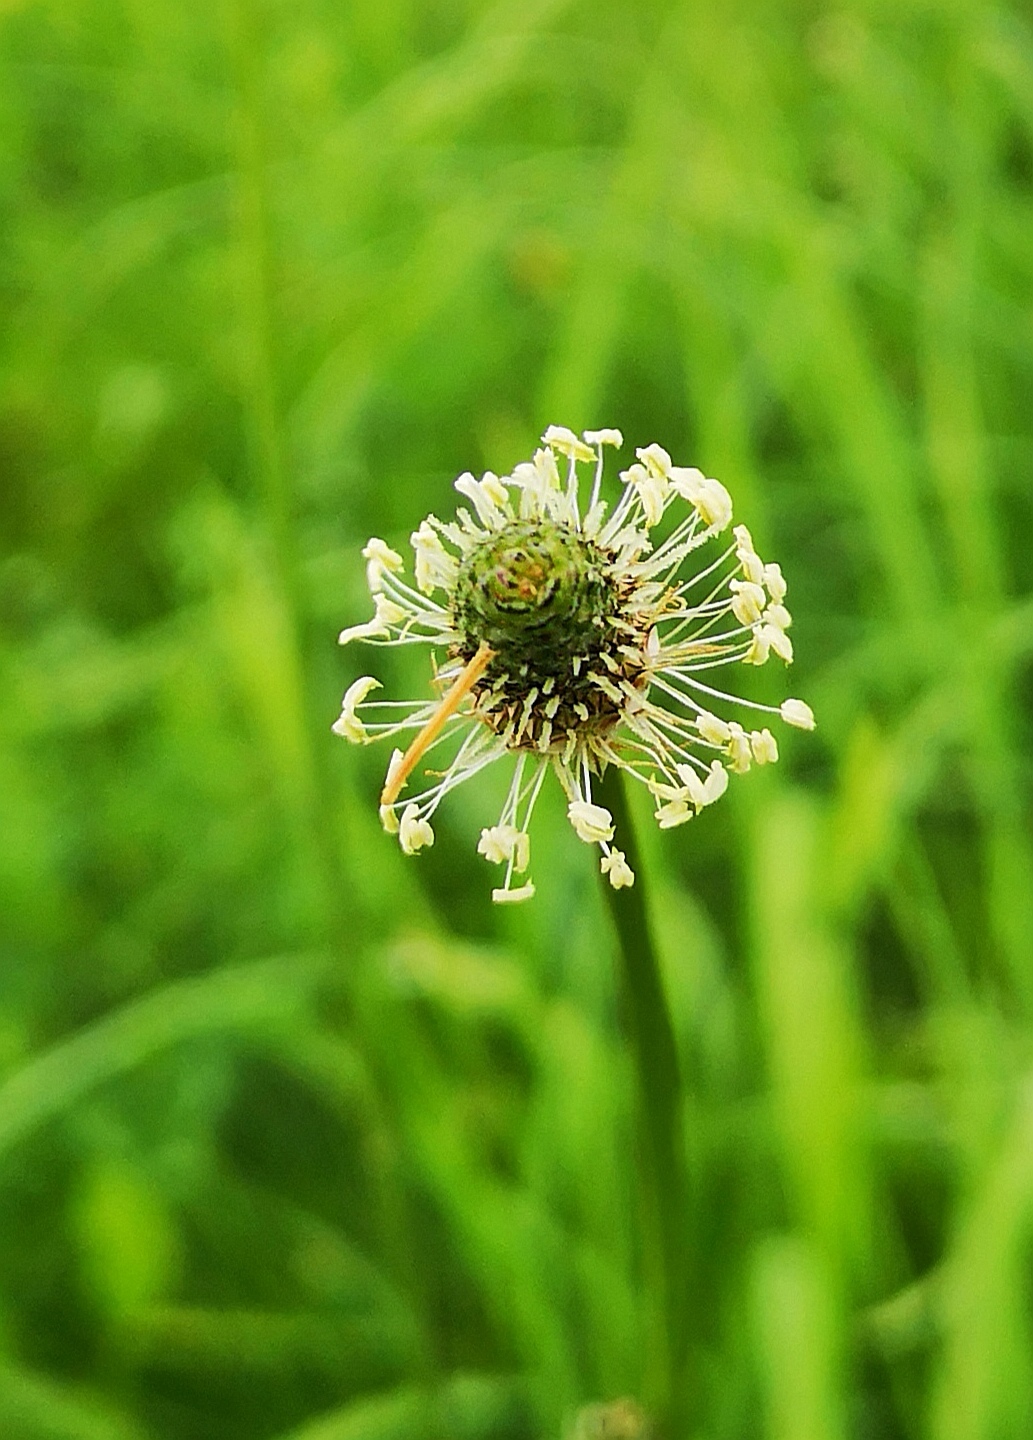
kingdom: Plantae
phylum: Tracheophyta
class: Magnoliopsida
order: Lamiales
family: Plantaginaceae
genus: Plantago
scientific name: Plantago lanceolata
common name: Ribwort plantain
